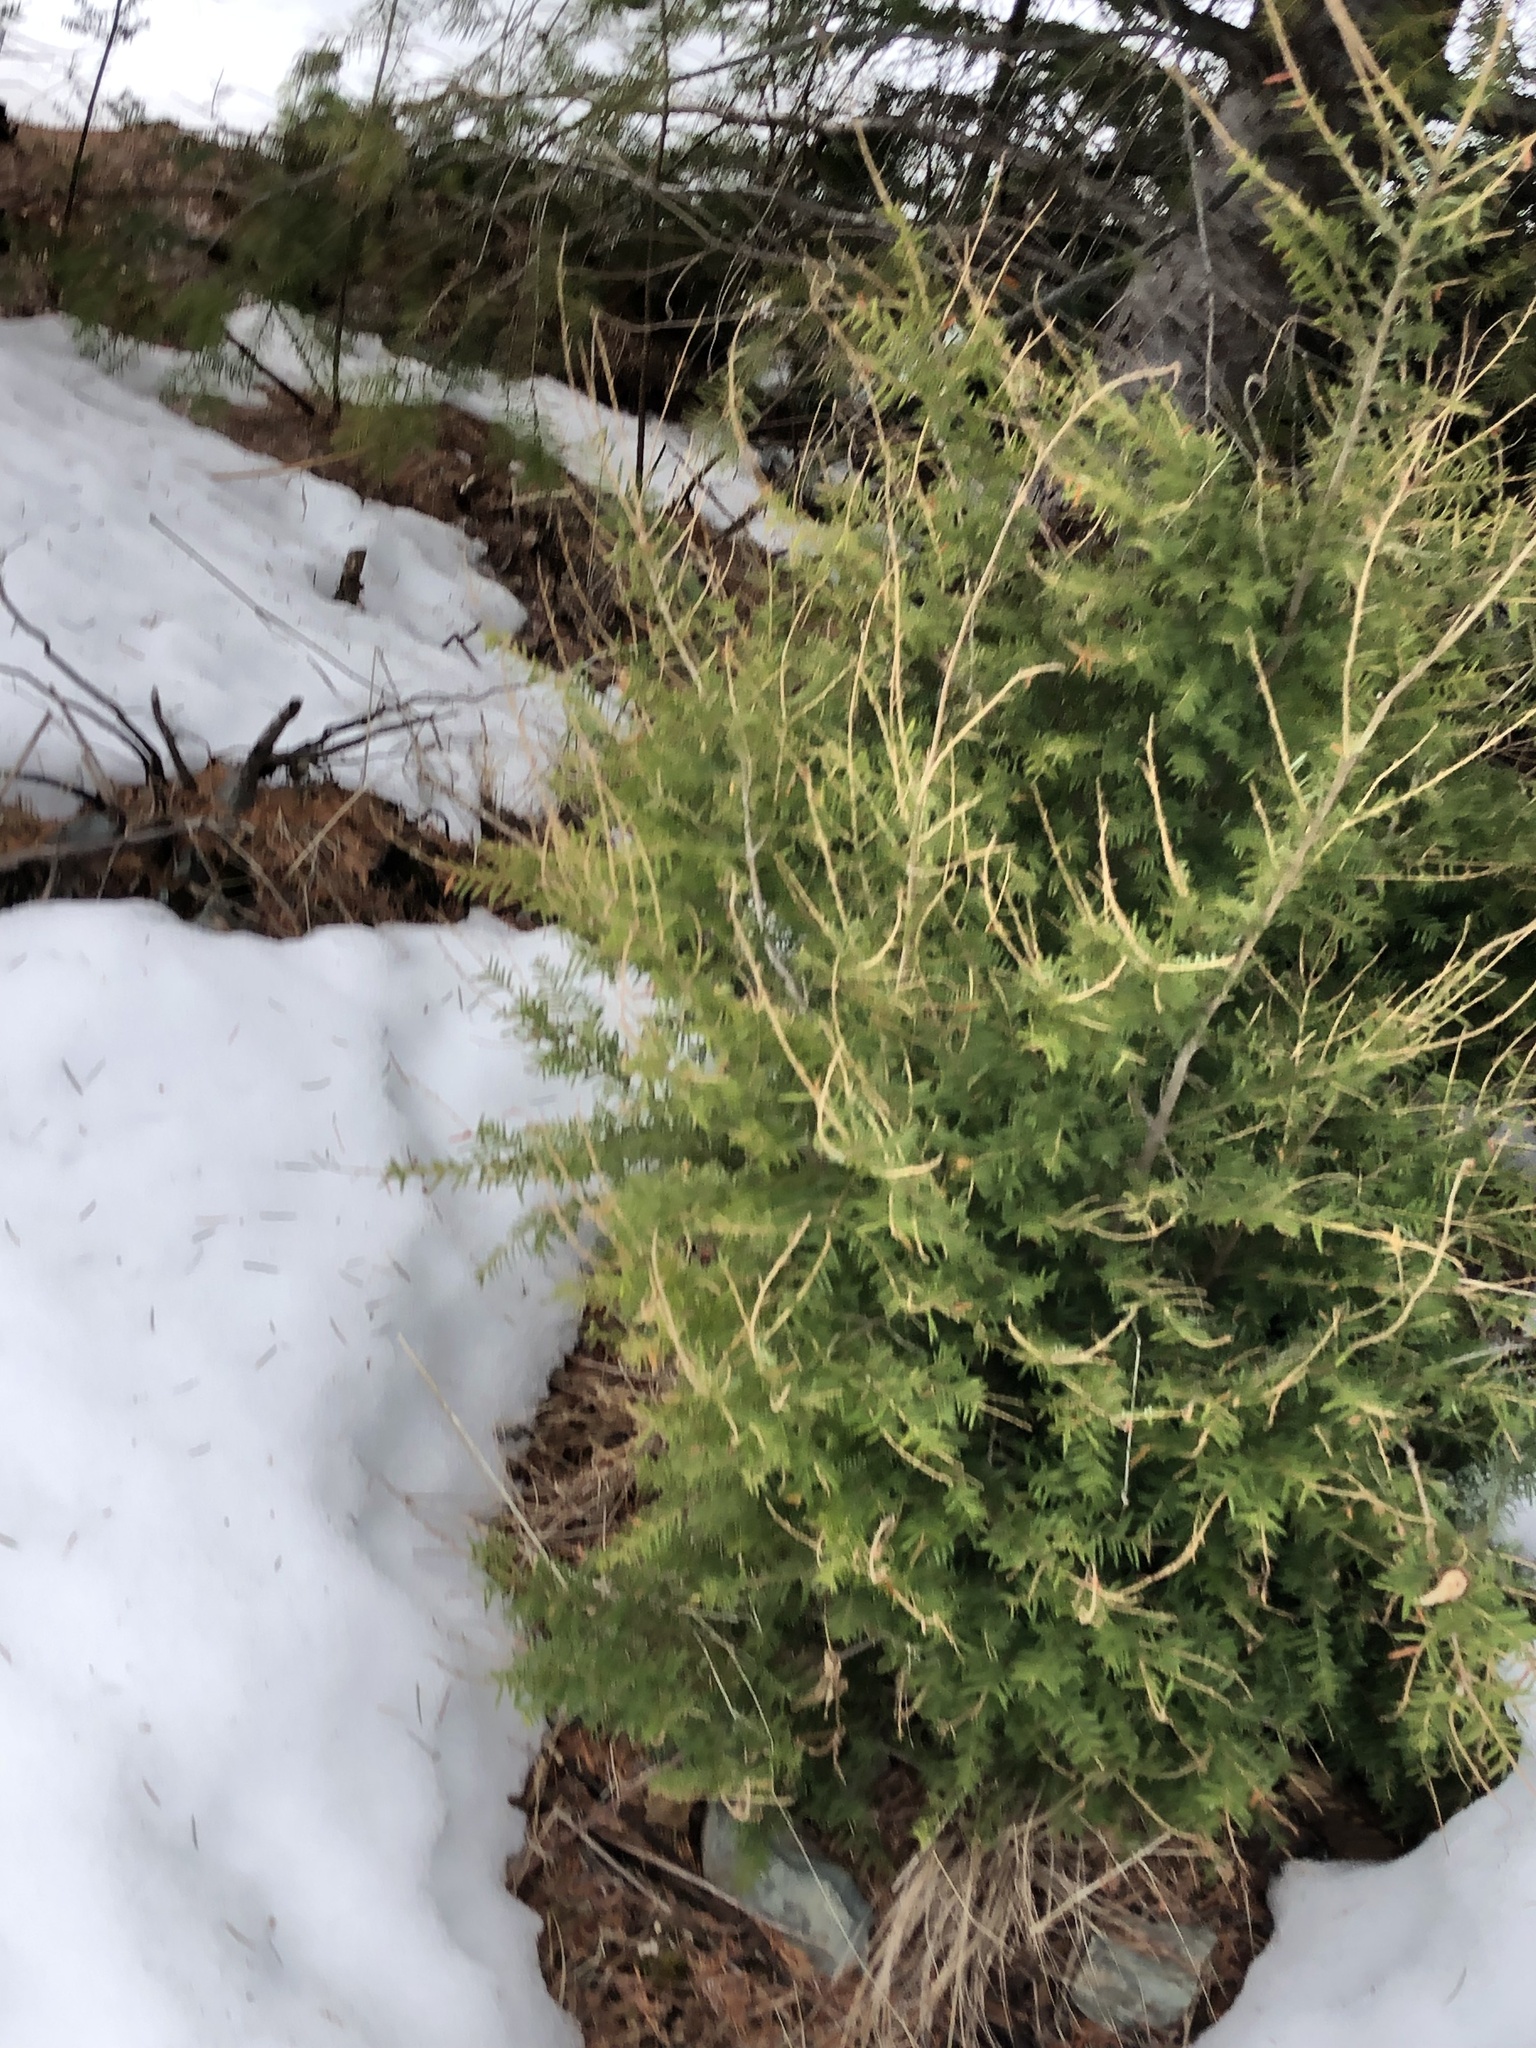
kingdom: Plantae
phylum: Tracheophyta
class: Pinopsida
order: Pinales
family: Pinaceae
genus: Tsuga
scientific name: Tsuga heterophylla
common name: Western hemlock
